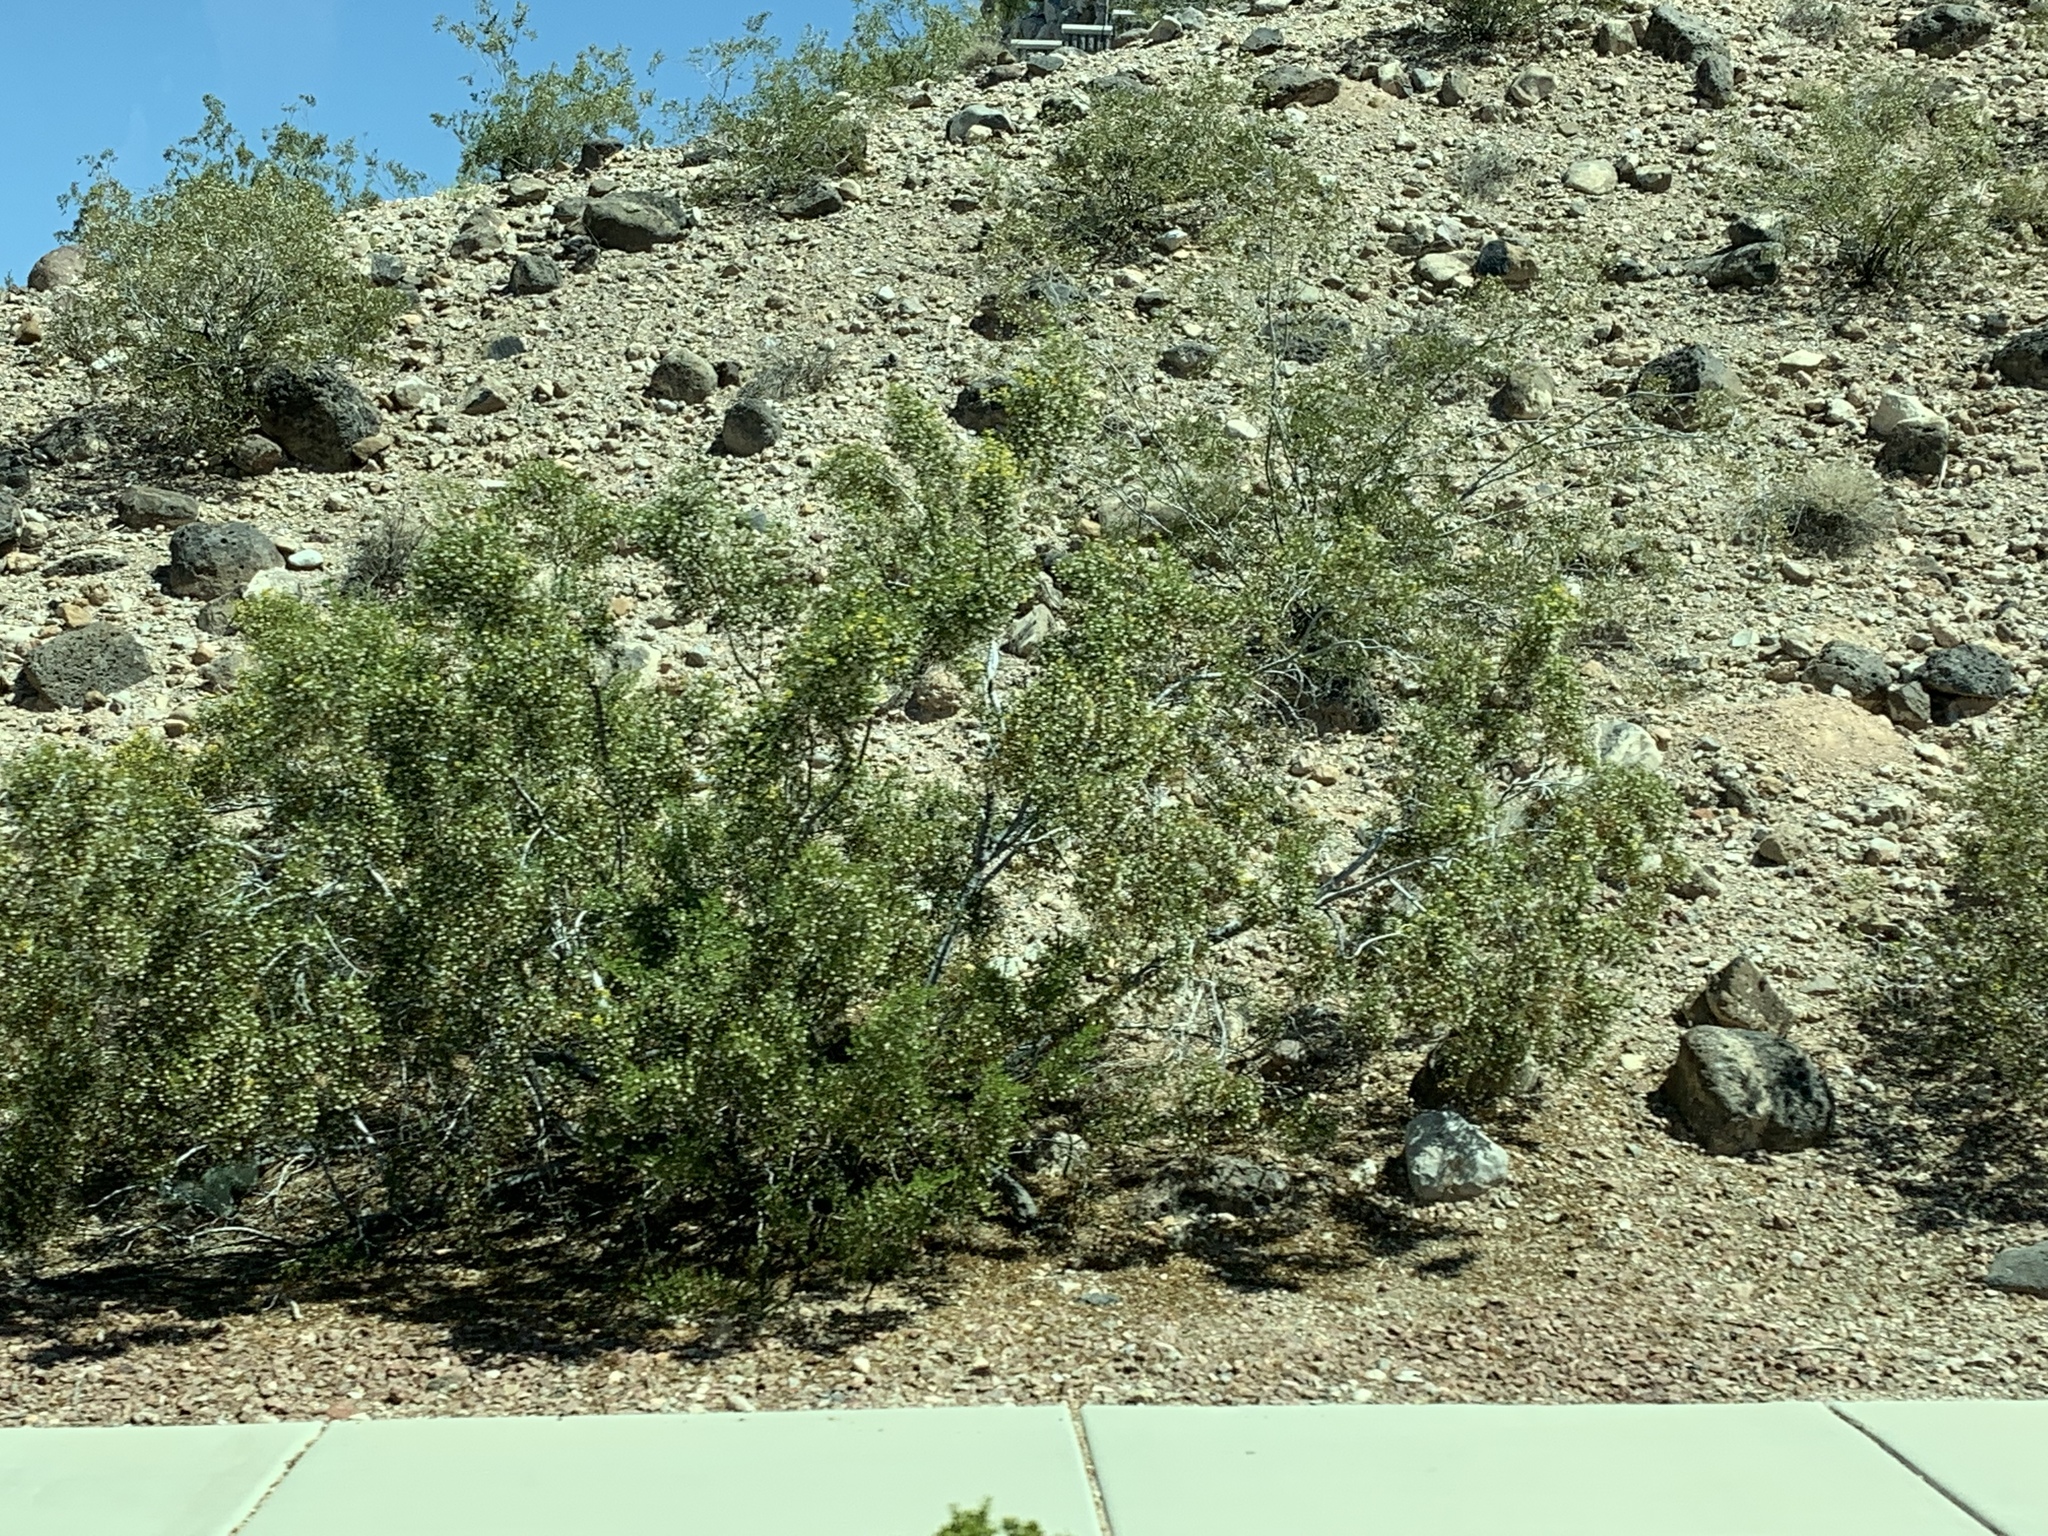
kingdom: Plantae
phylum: Tracheophyta
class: Magnoliopsida
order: Zygophyllales
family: Zygophyllaceae
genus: Larrea
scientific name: Larrea tridentata
